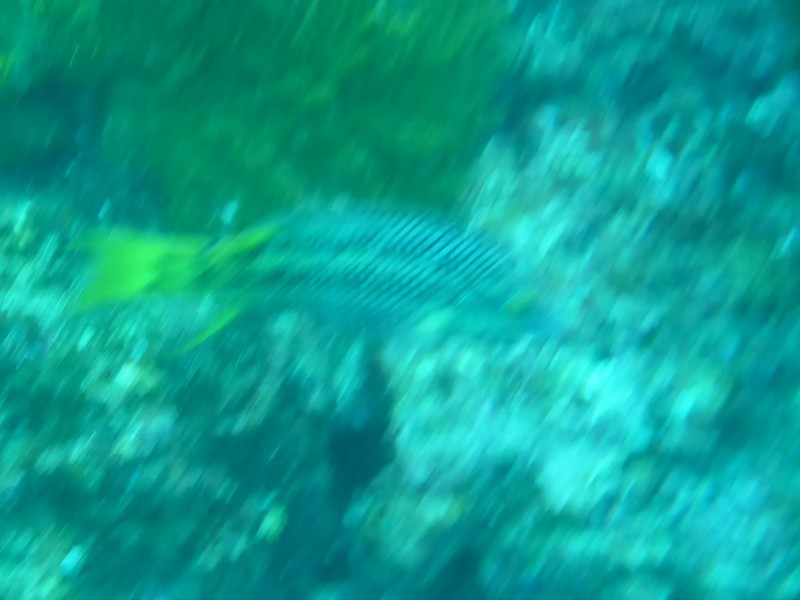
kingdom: Animalia
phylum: Chordata
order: Perciformes
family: Labridae
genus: Bodianus
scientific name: Bodianus diplotaenia
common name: Mexican hogfish
